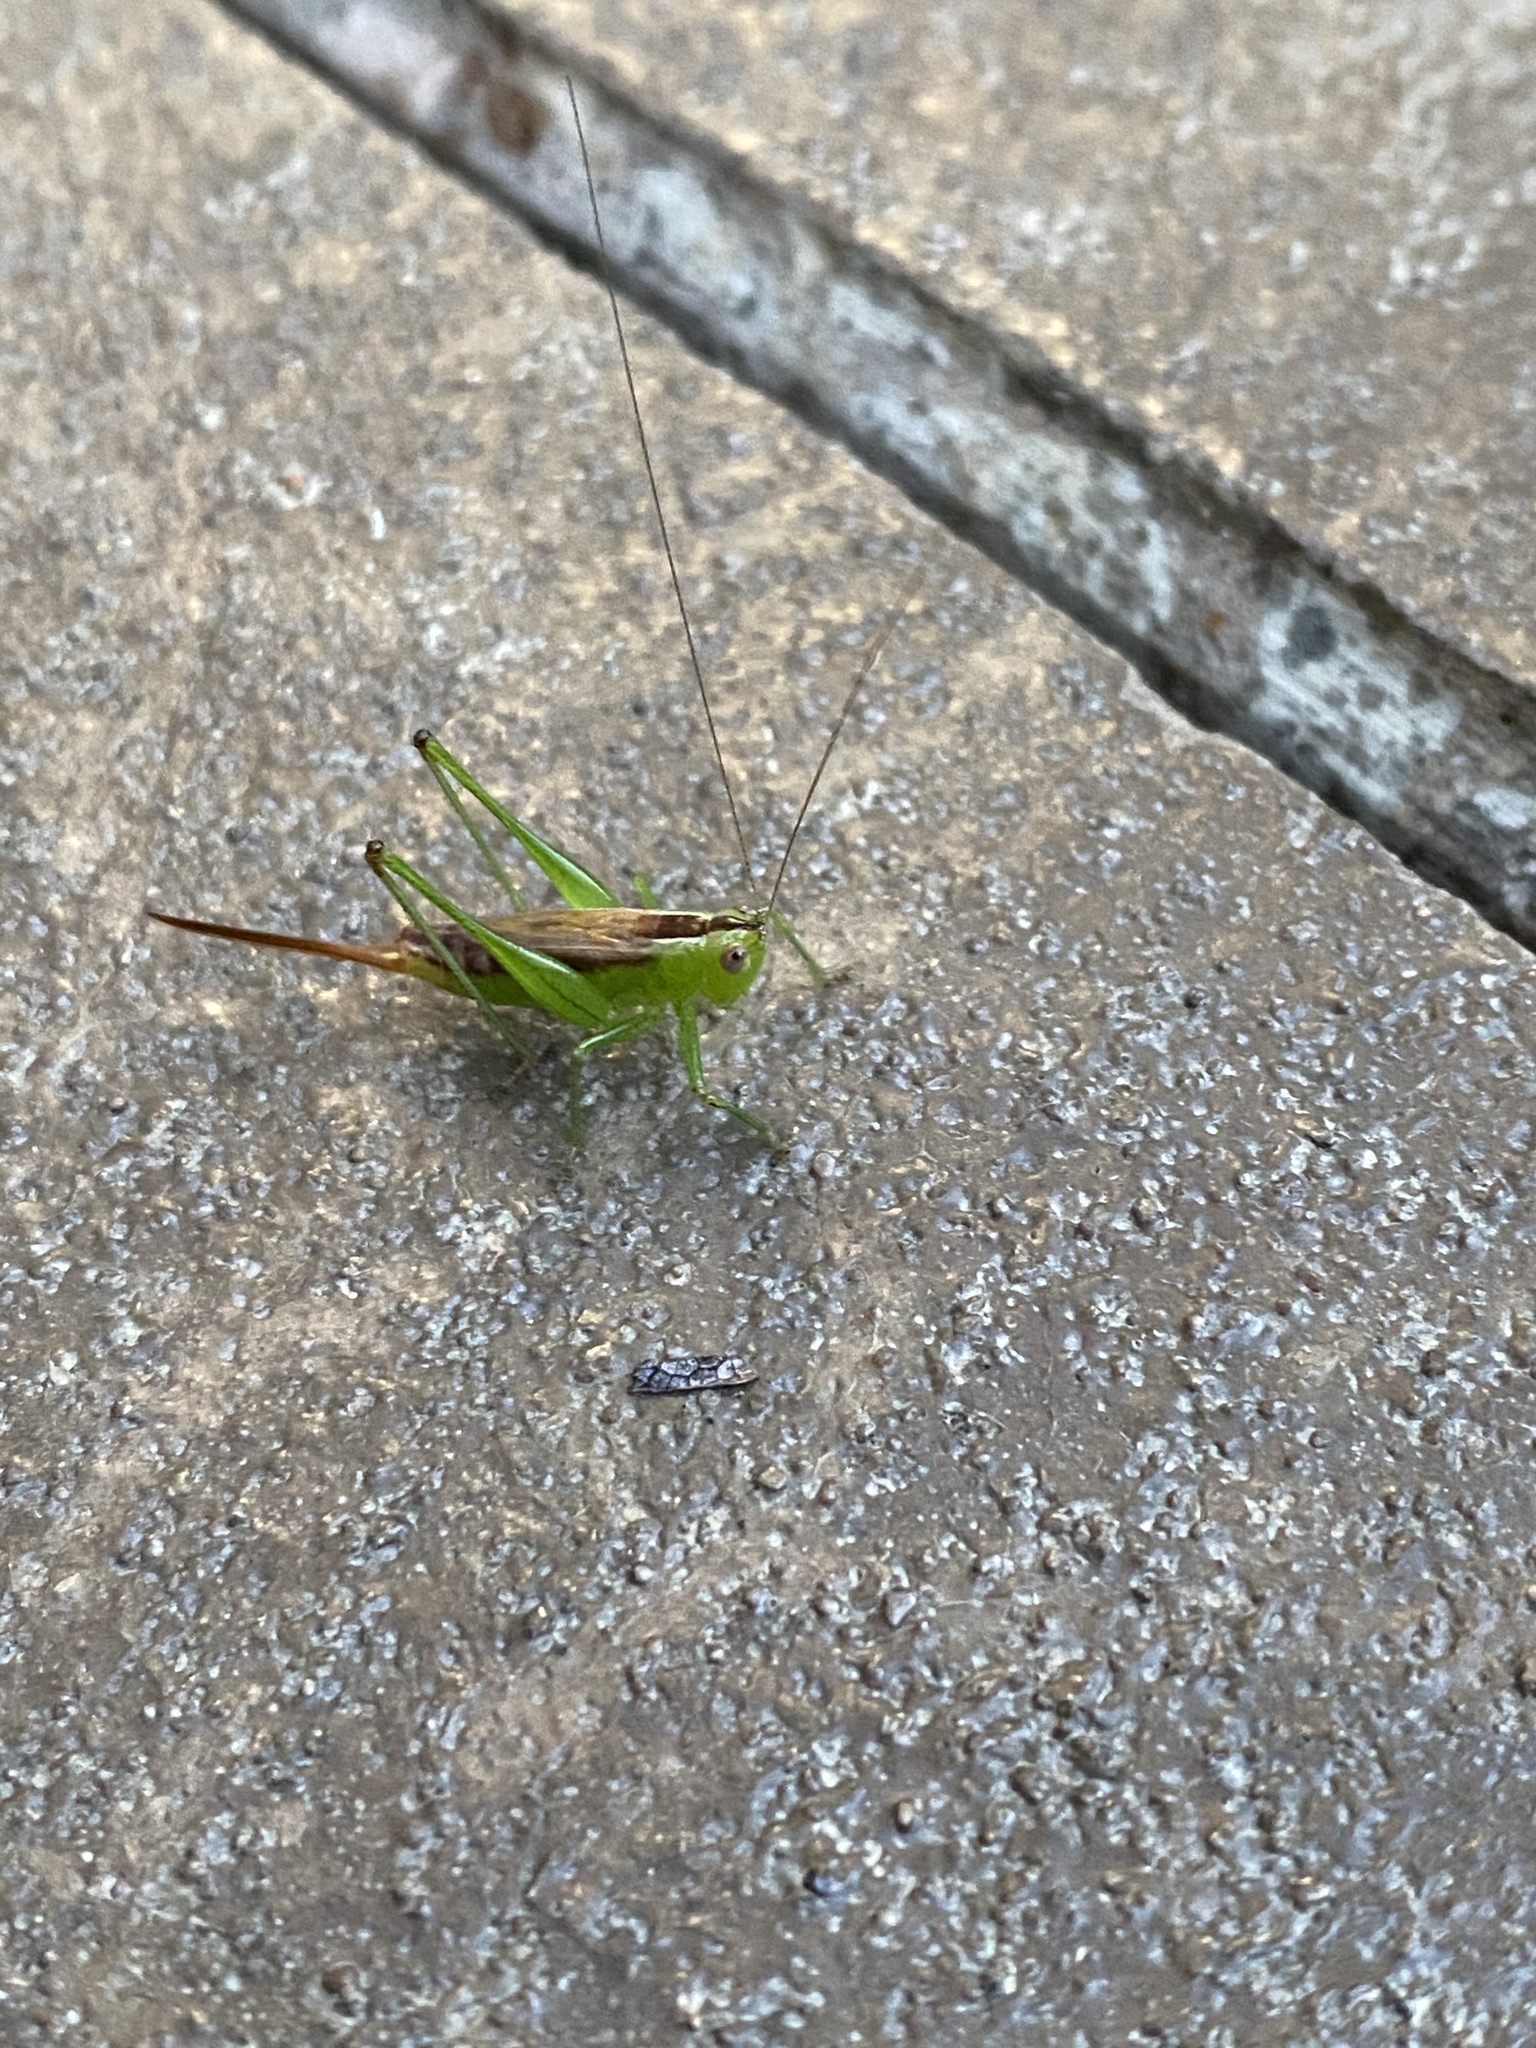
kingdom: Animalia
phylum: Arthropoda
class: Insecta
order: Orthoptera
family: Tettigoniidae
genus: Conocephalus
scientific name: Conocephalus brevipennis
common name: Short-winged meadow katydid
